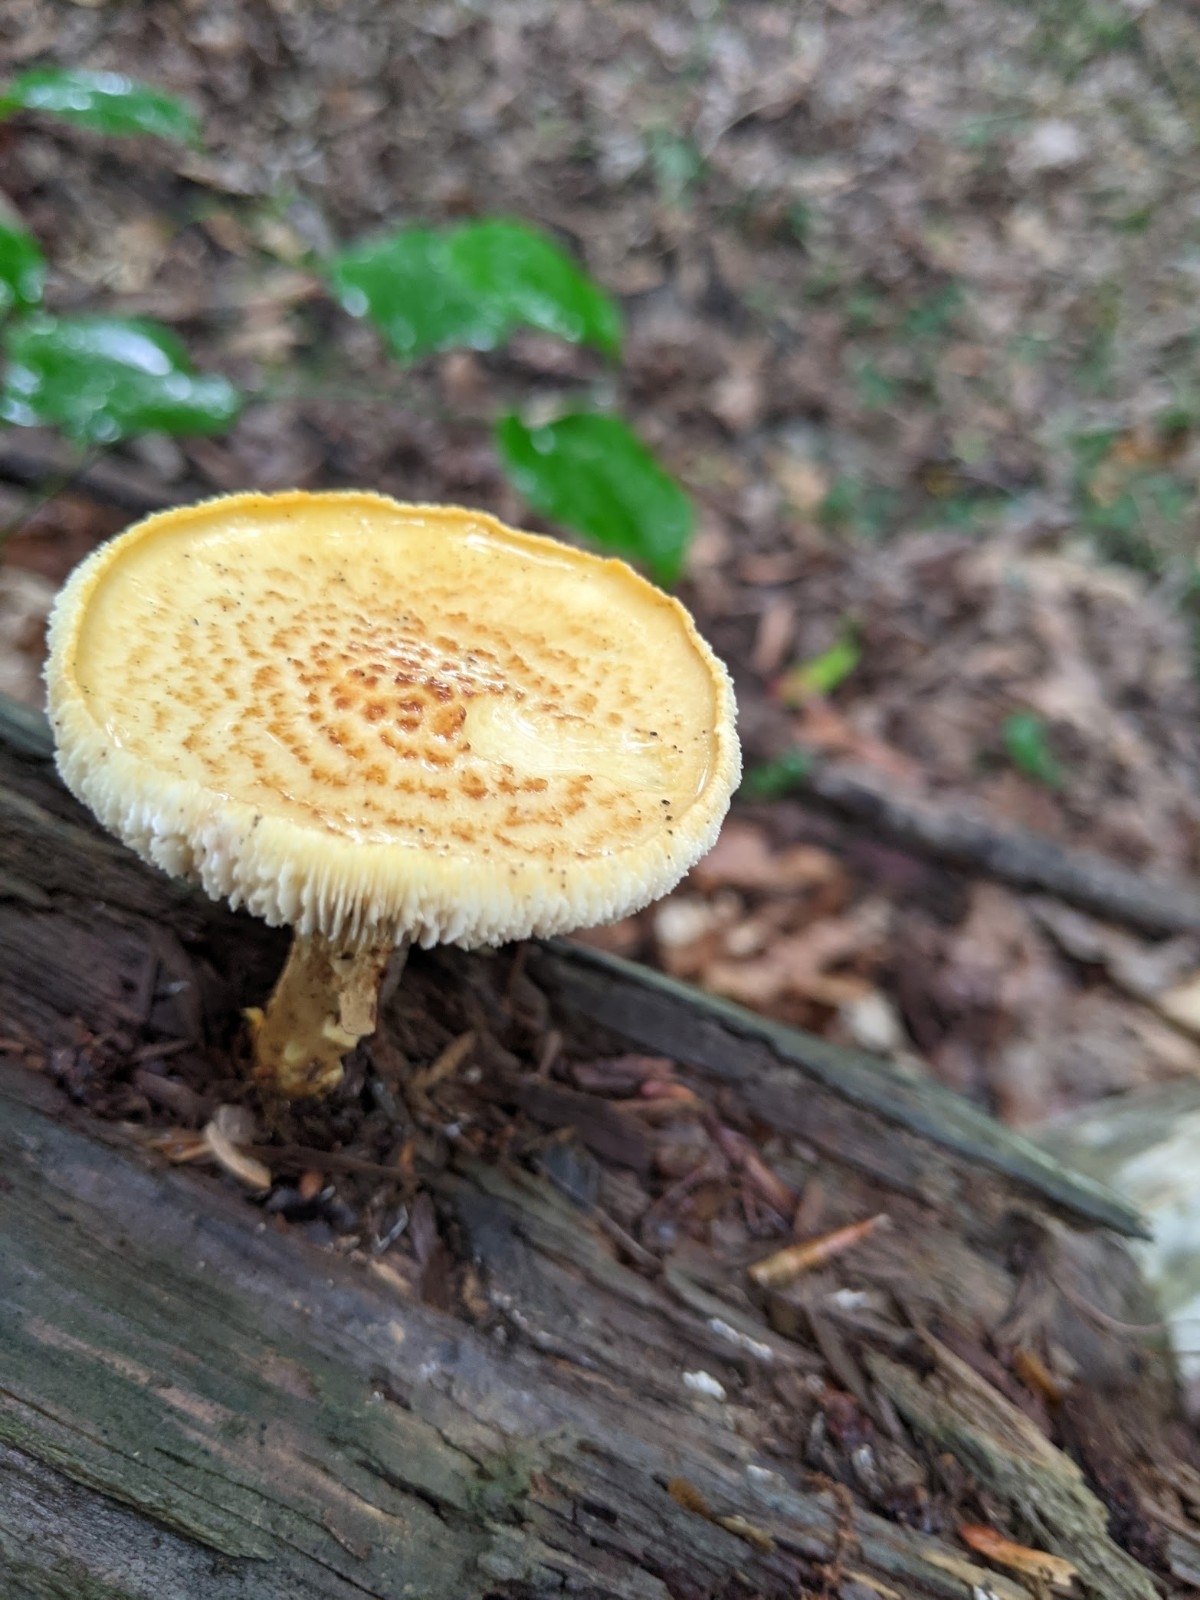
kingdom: Fungi
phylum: Basidiomycota
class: Agaricomycetes
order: Gloeophyllales
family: Gloeophyllaceae
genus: Neolentinus
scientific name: Neolentinus lepideus
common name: Scaly sawgill
